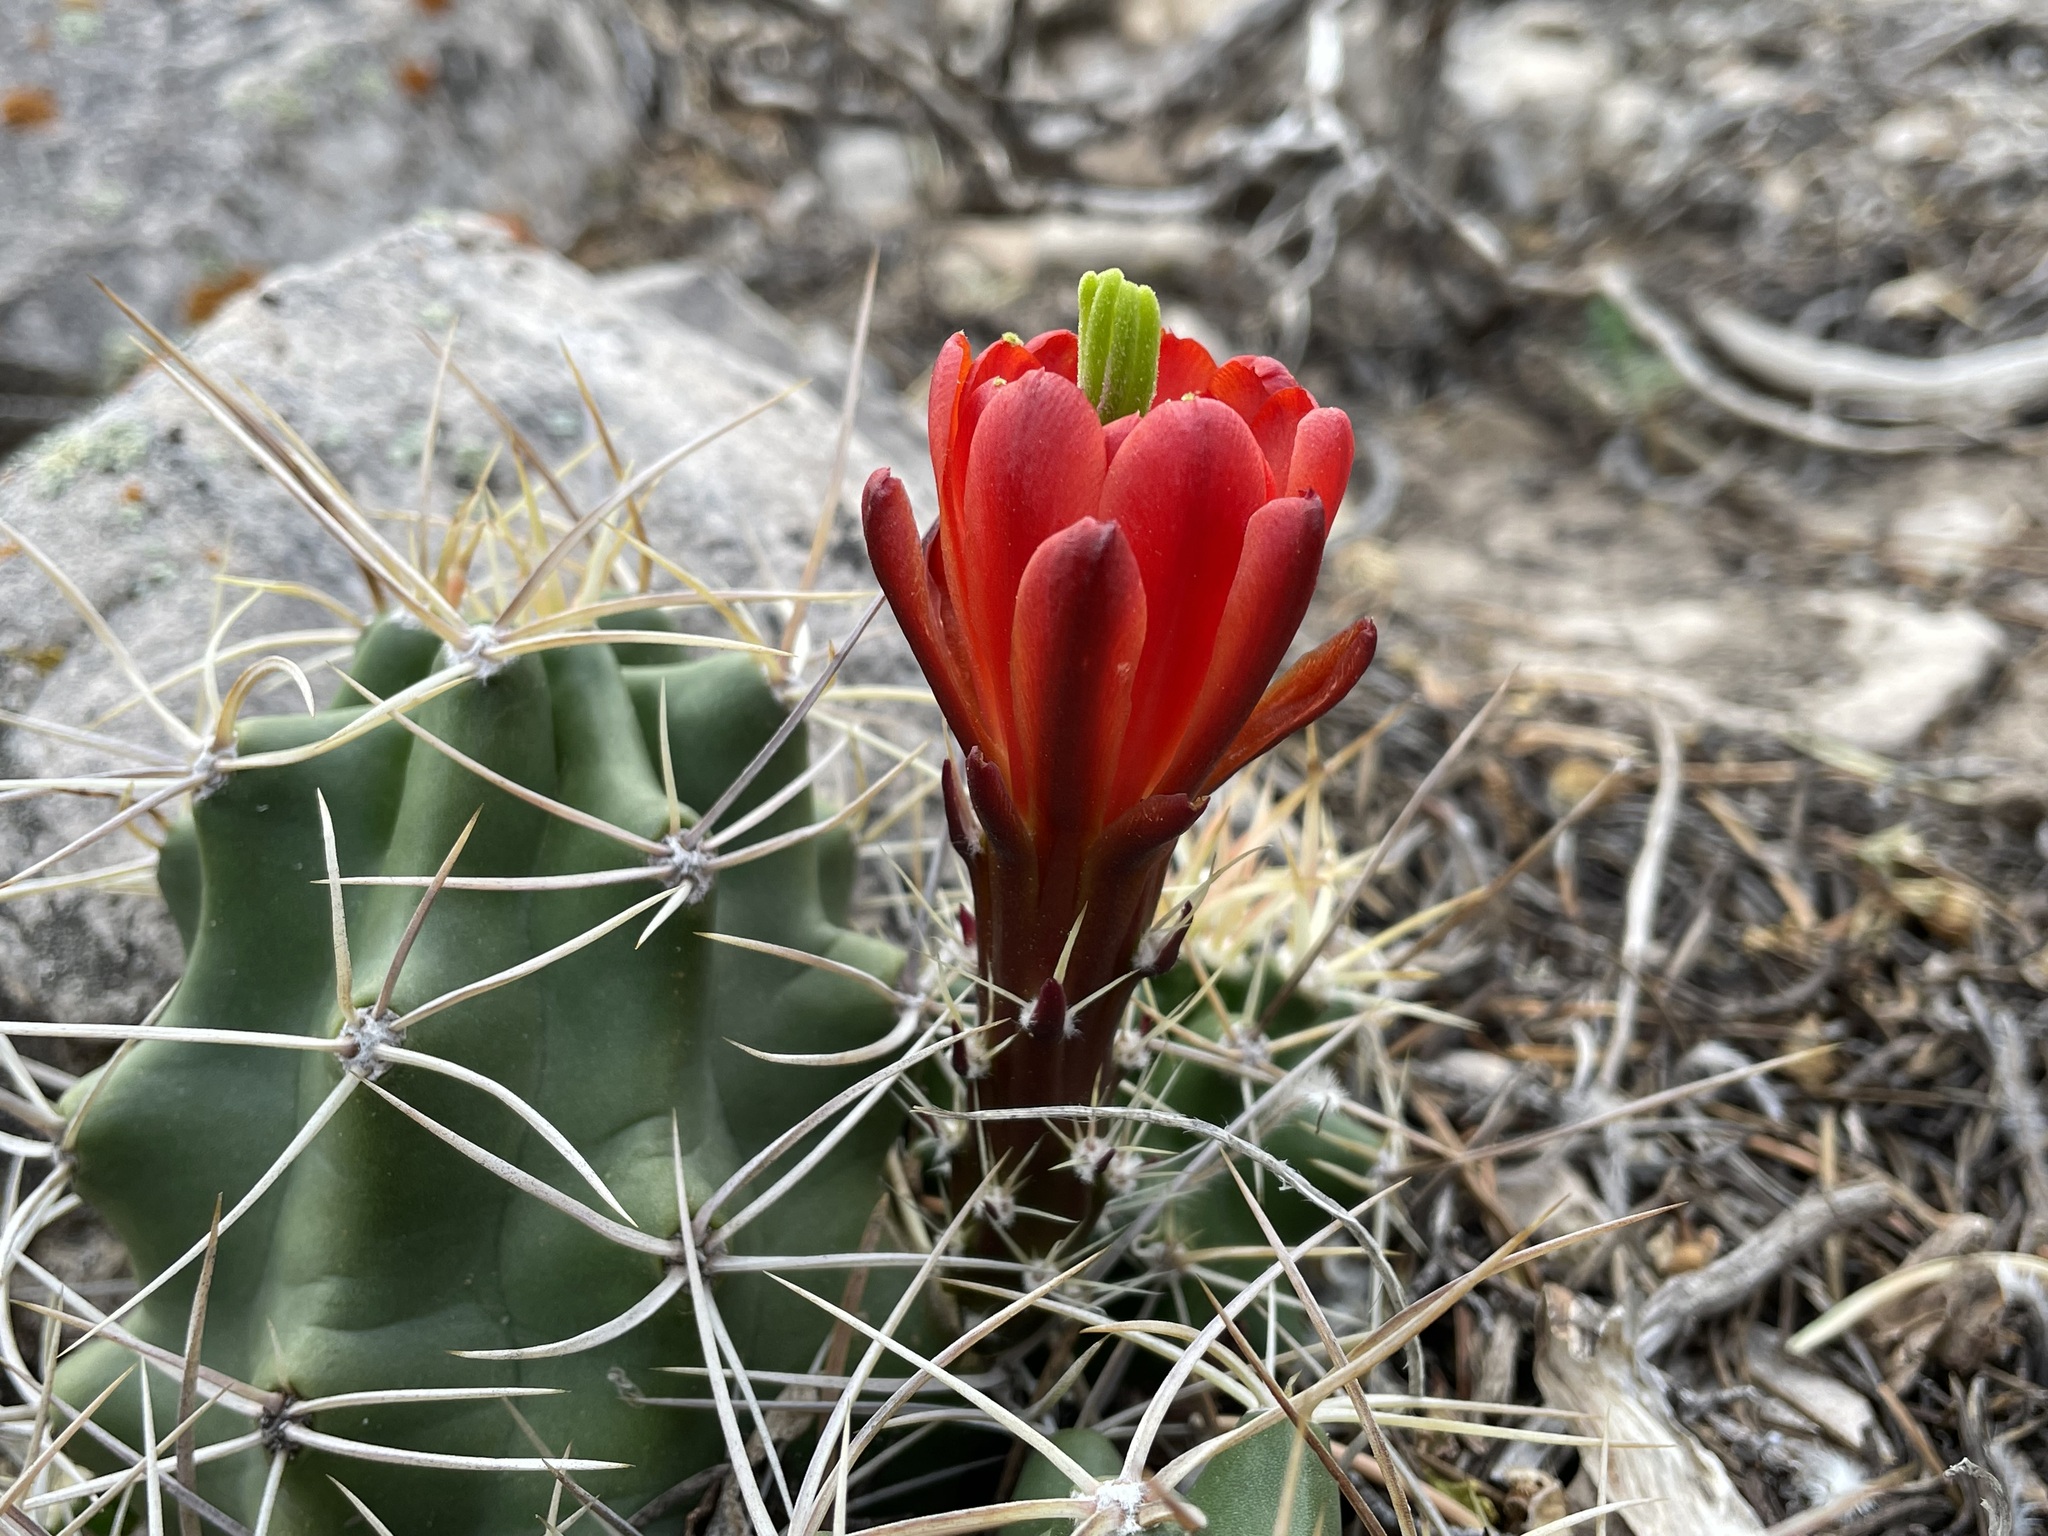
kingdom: Plantae
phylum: Tracheophyta
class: Magnoliopsida
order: Caryophyllales
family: Cactaceae
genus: Echinocereus
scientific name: Echinocereus triglochidiatus
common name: Claretcup hedgehog
